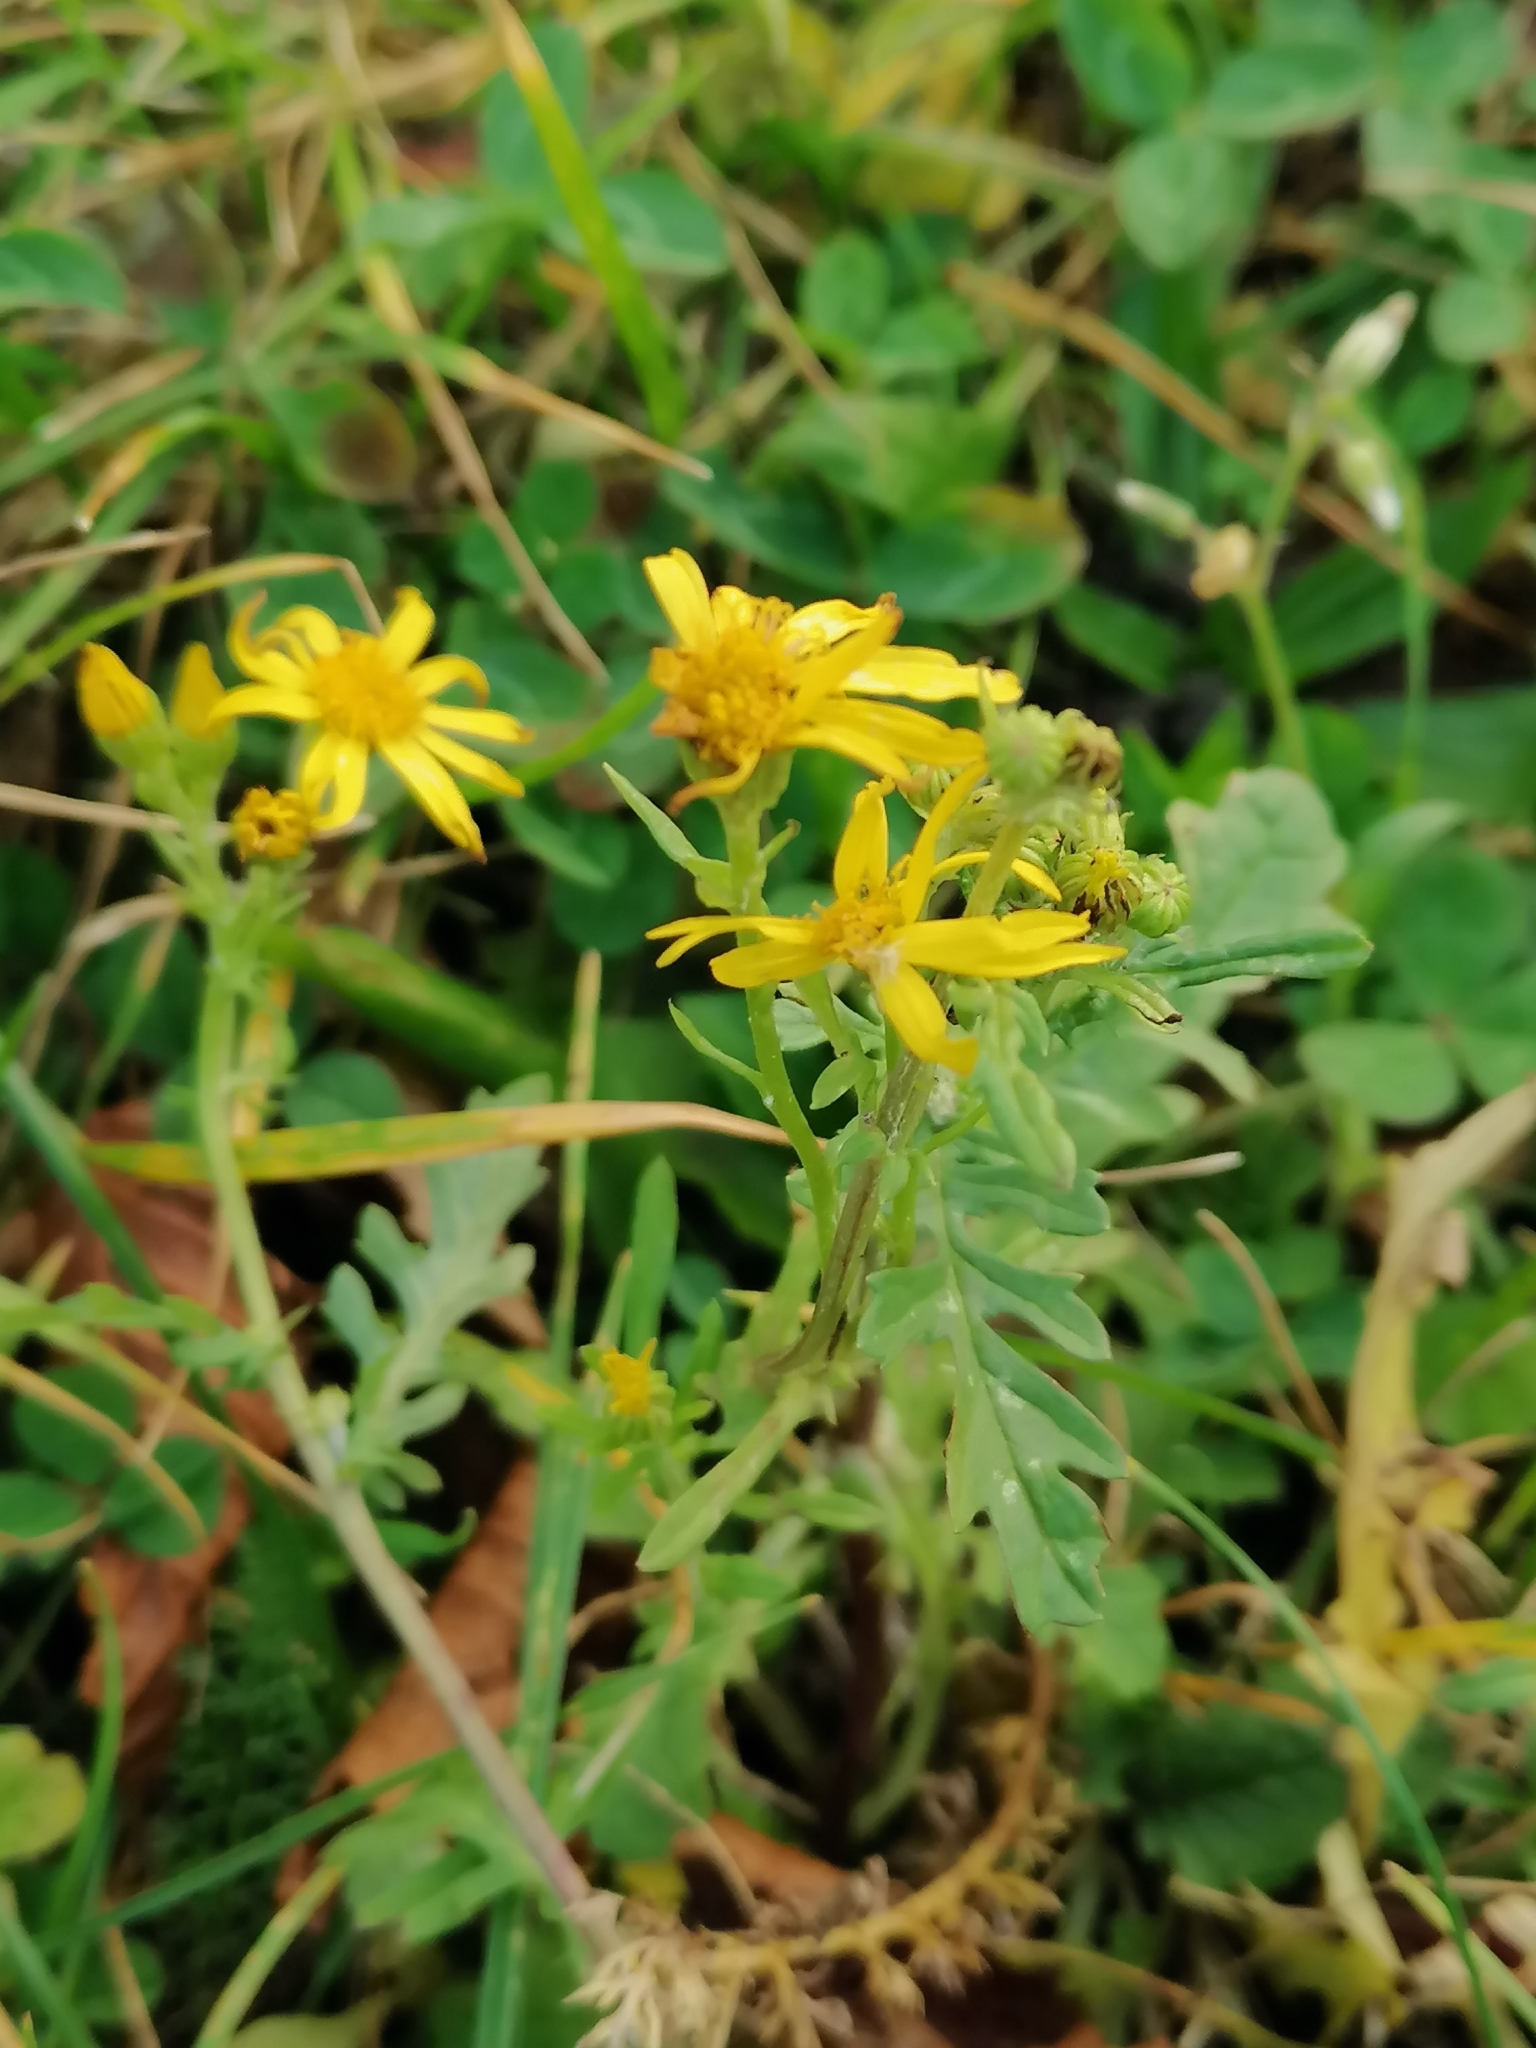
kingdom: Plantae
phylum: Tracheophyta
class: Magnoliopsida
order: Asterales
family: Asteraceae
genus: Jacobaea
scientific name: Jacobaea vulgaris
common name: Stinking willie
